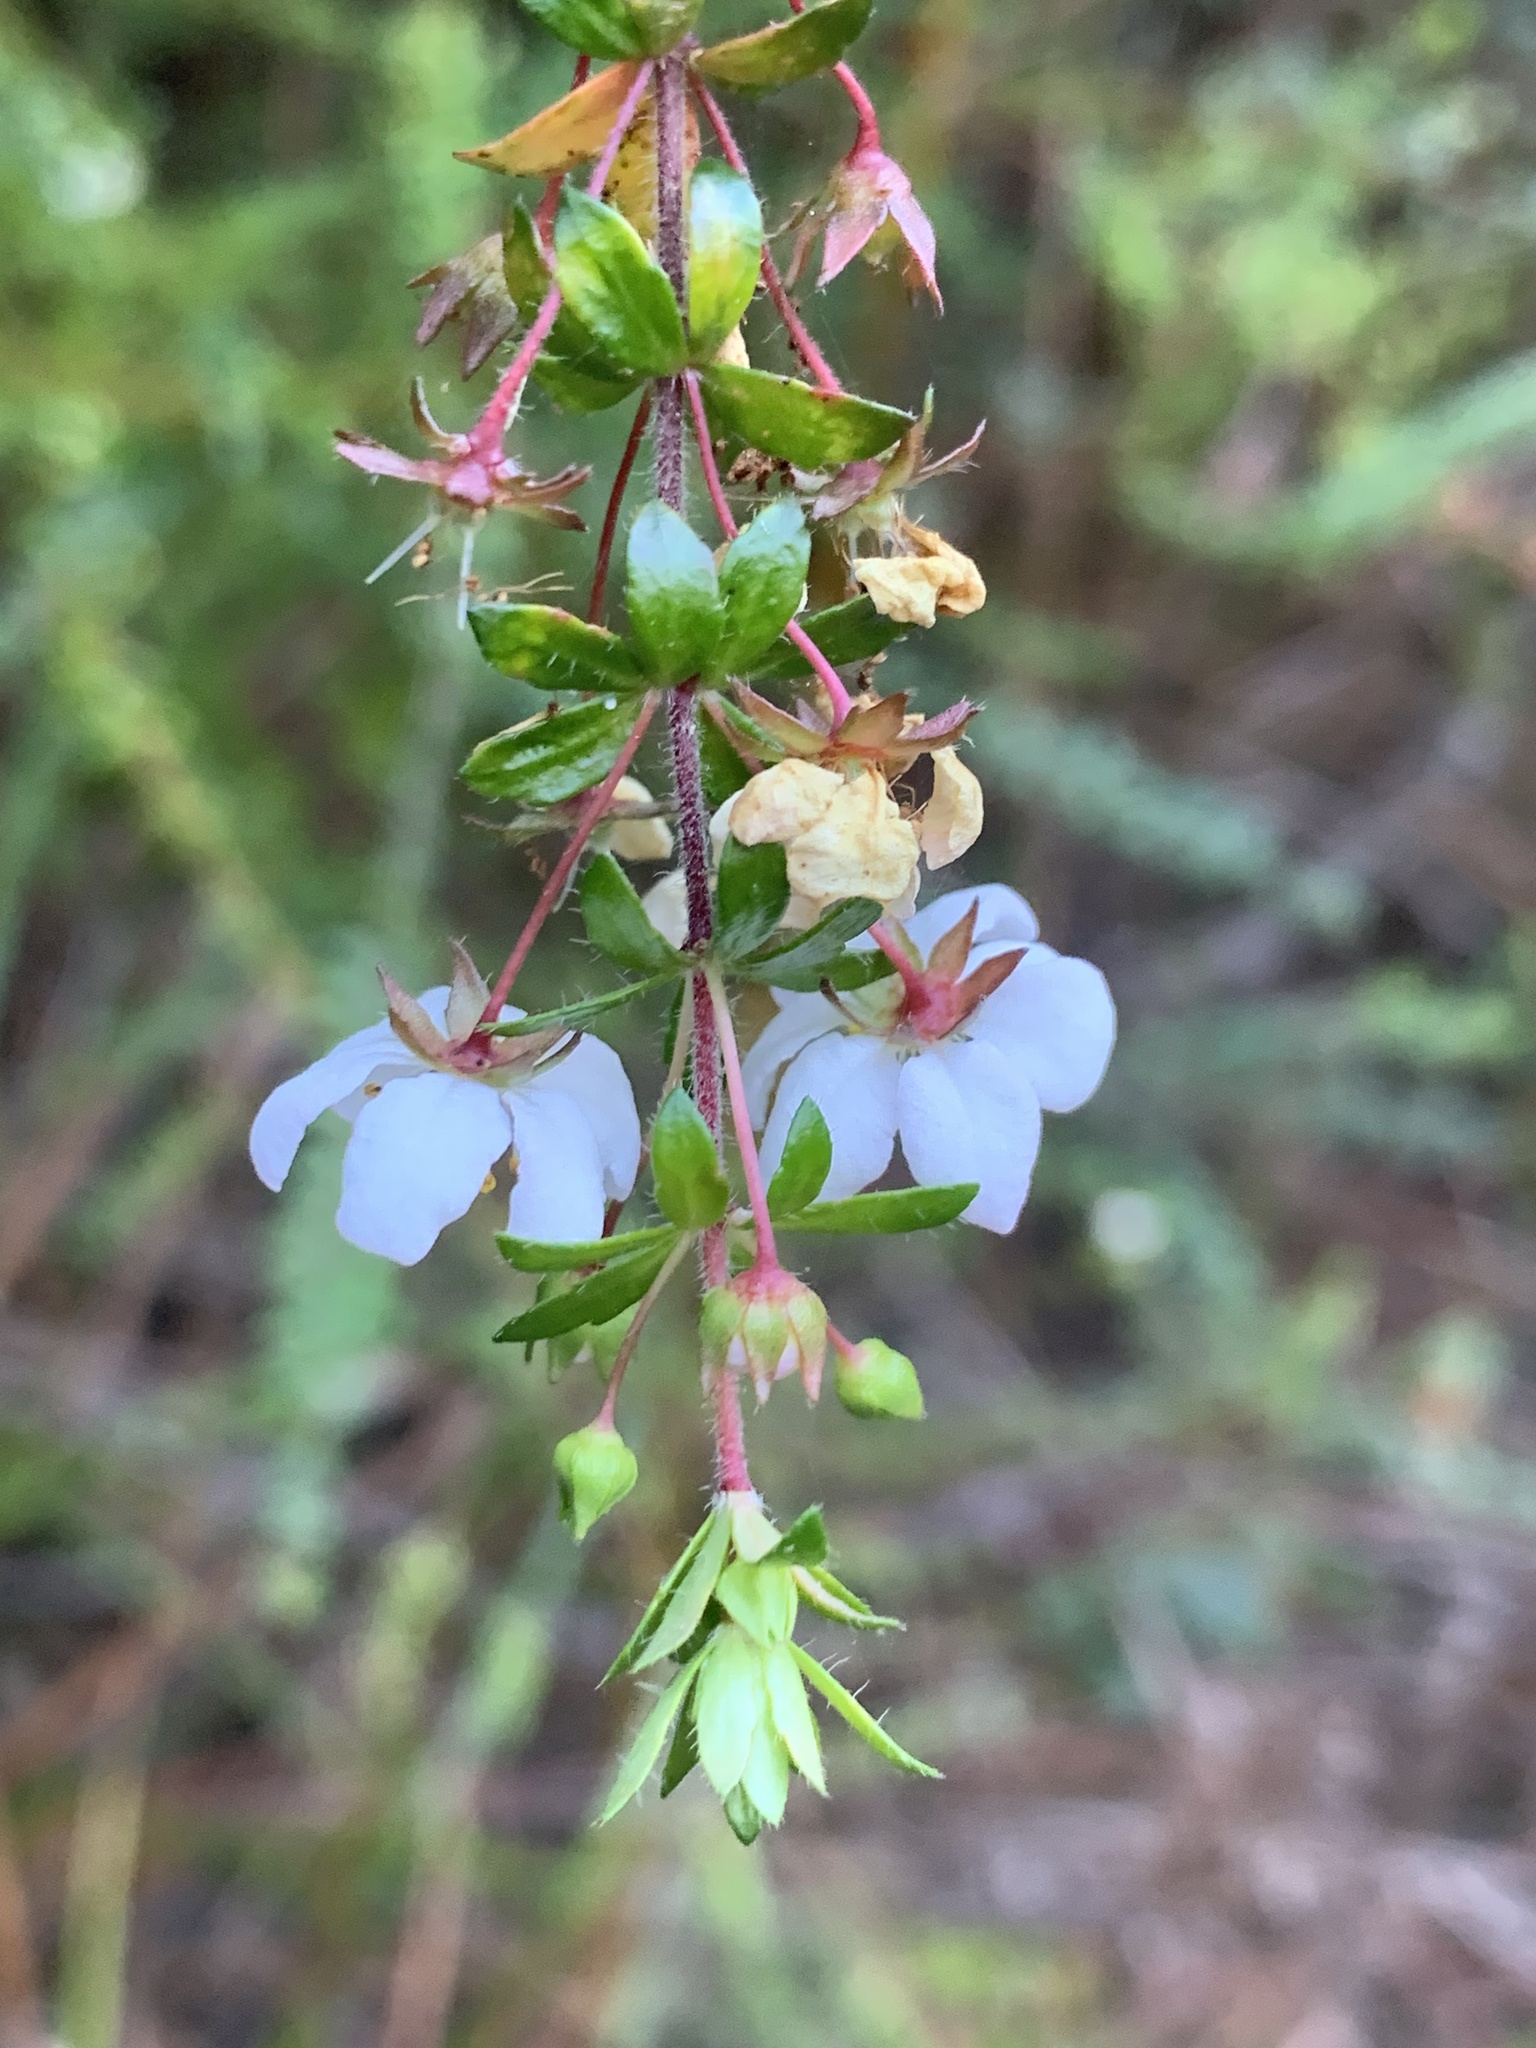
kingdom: Plantae
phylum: Tracheophyta
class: Magnoliopsida
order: Oxalidales
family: Cunoniaceae
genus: Bauera
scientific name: Bauera rubioides
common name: River-rose
